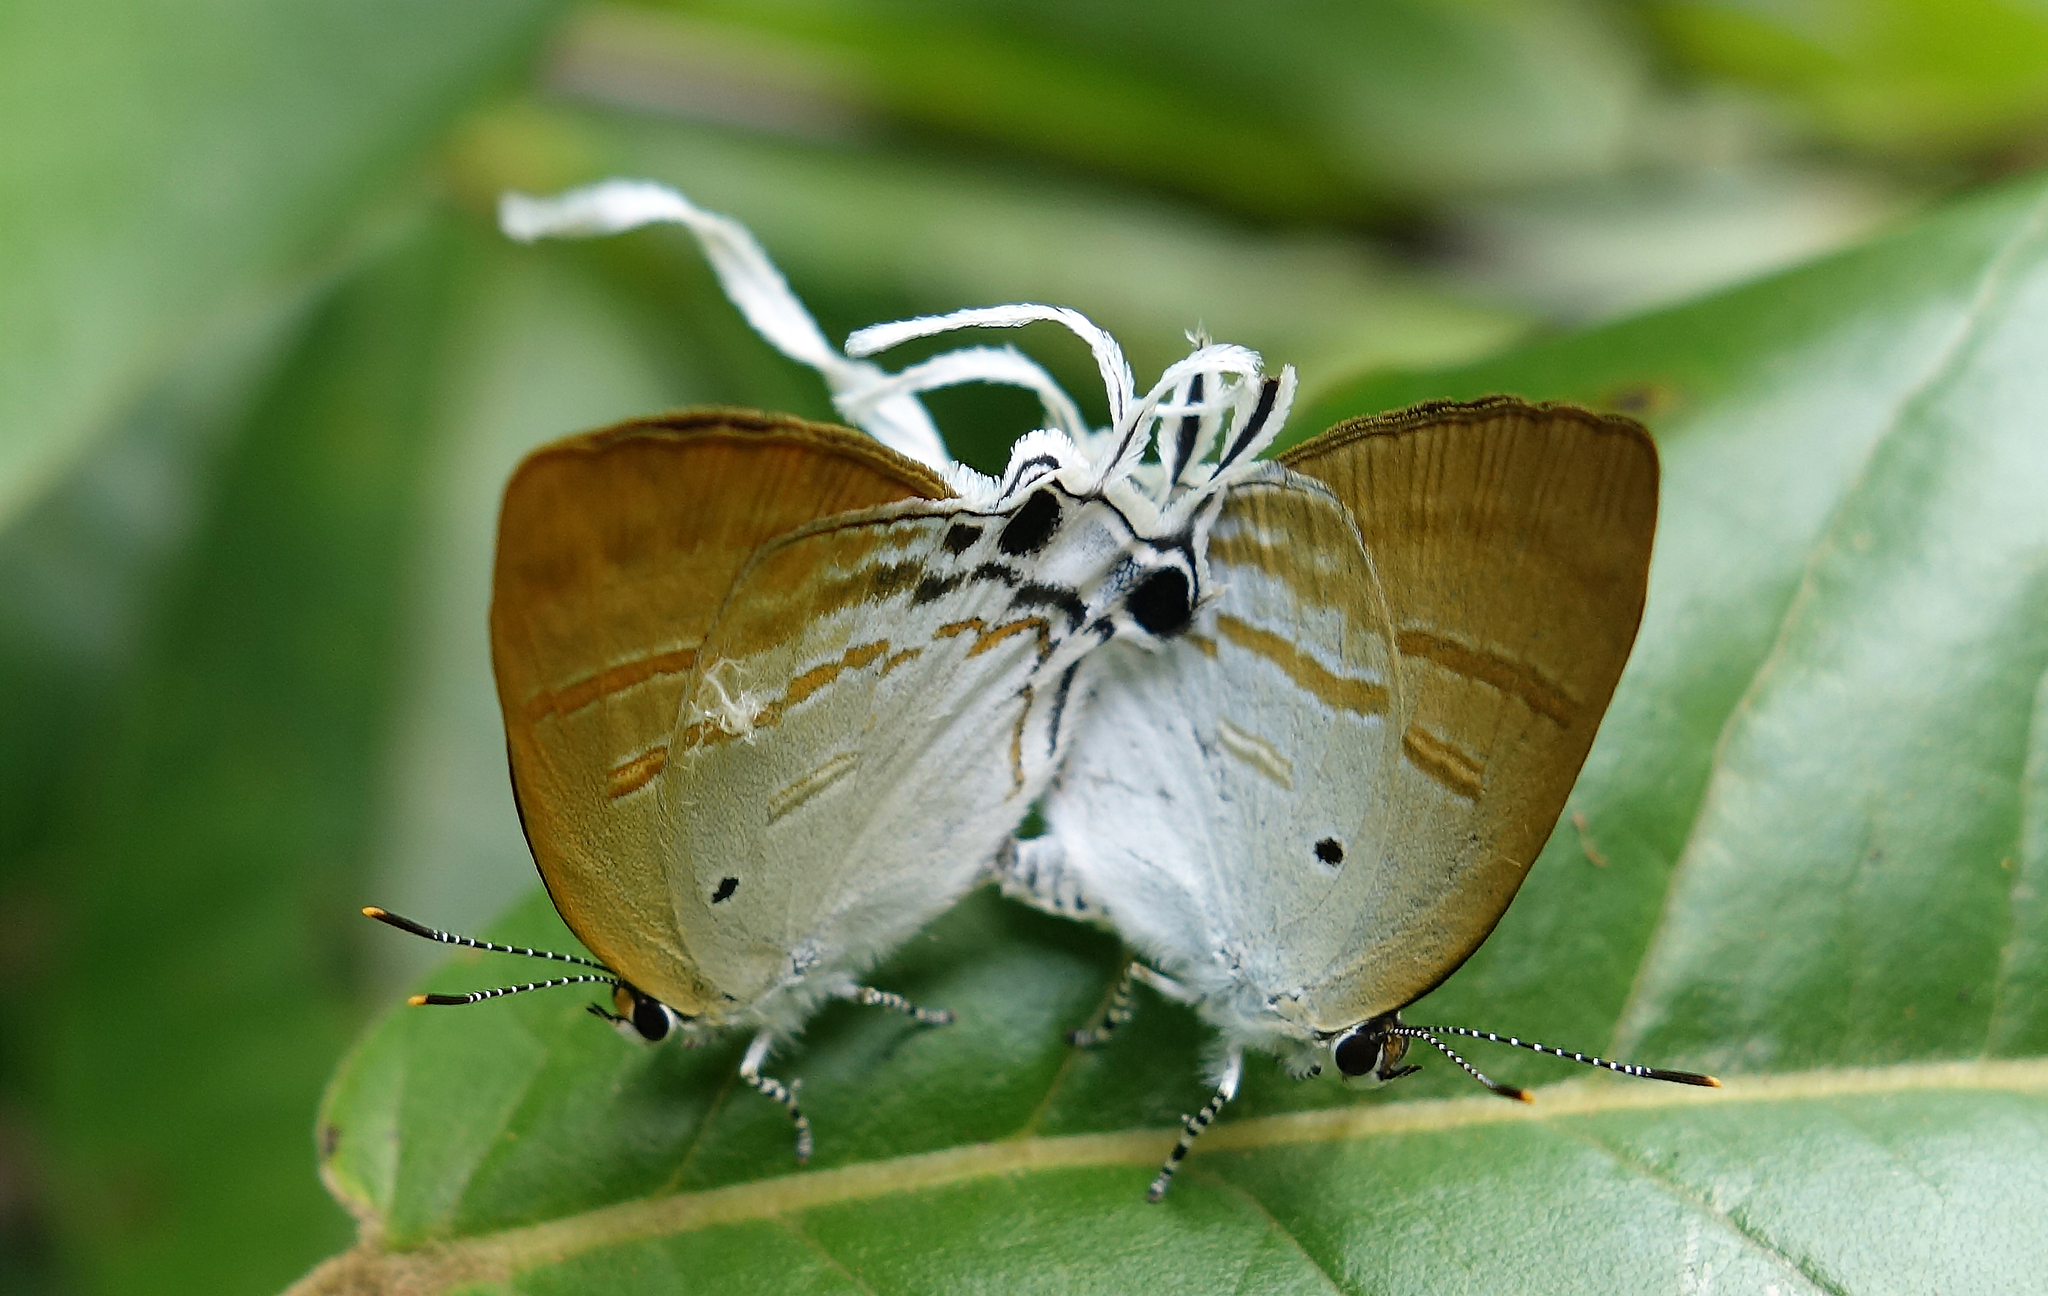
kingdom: Animalia
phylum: Arthropoda
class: Insecta
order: Lepidoptera
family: Lycaenidae
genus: Zeltus
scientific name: Zeltus amasa
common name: Fluffy tit
